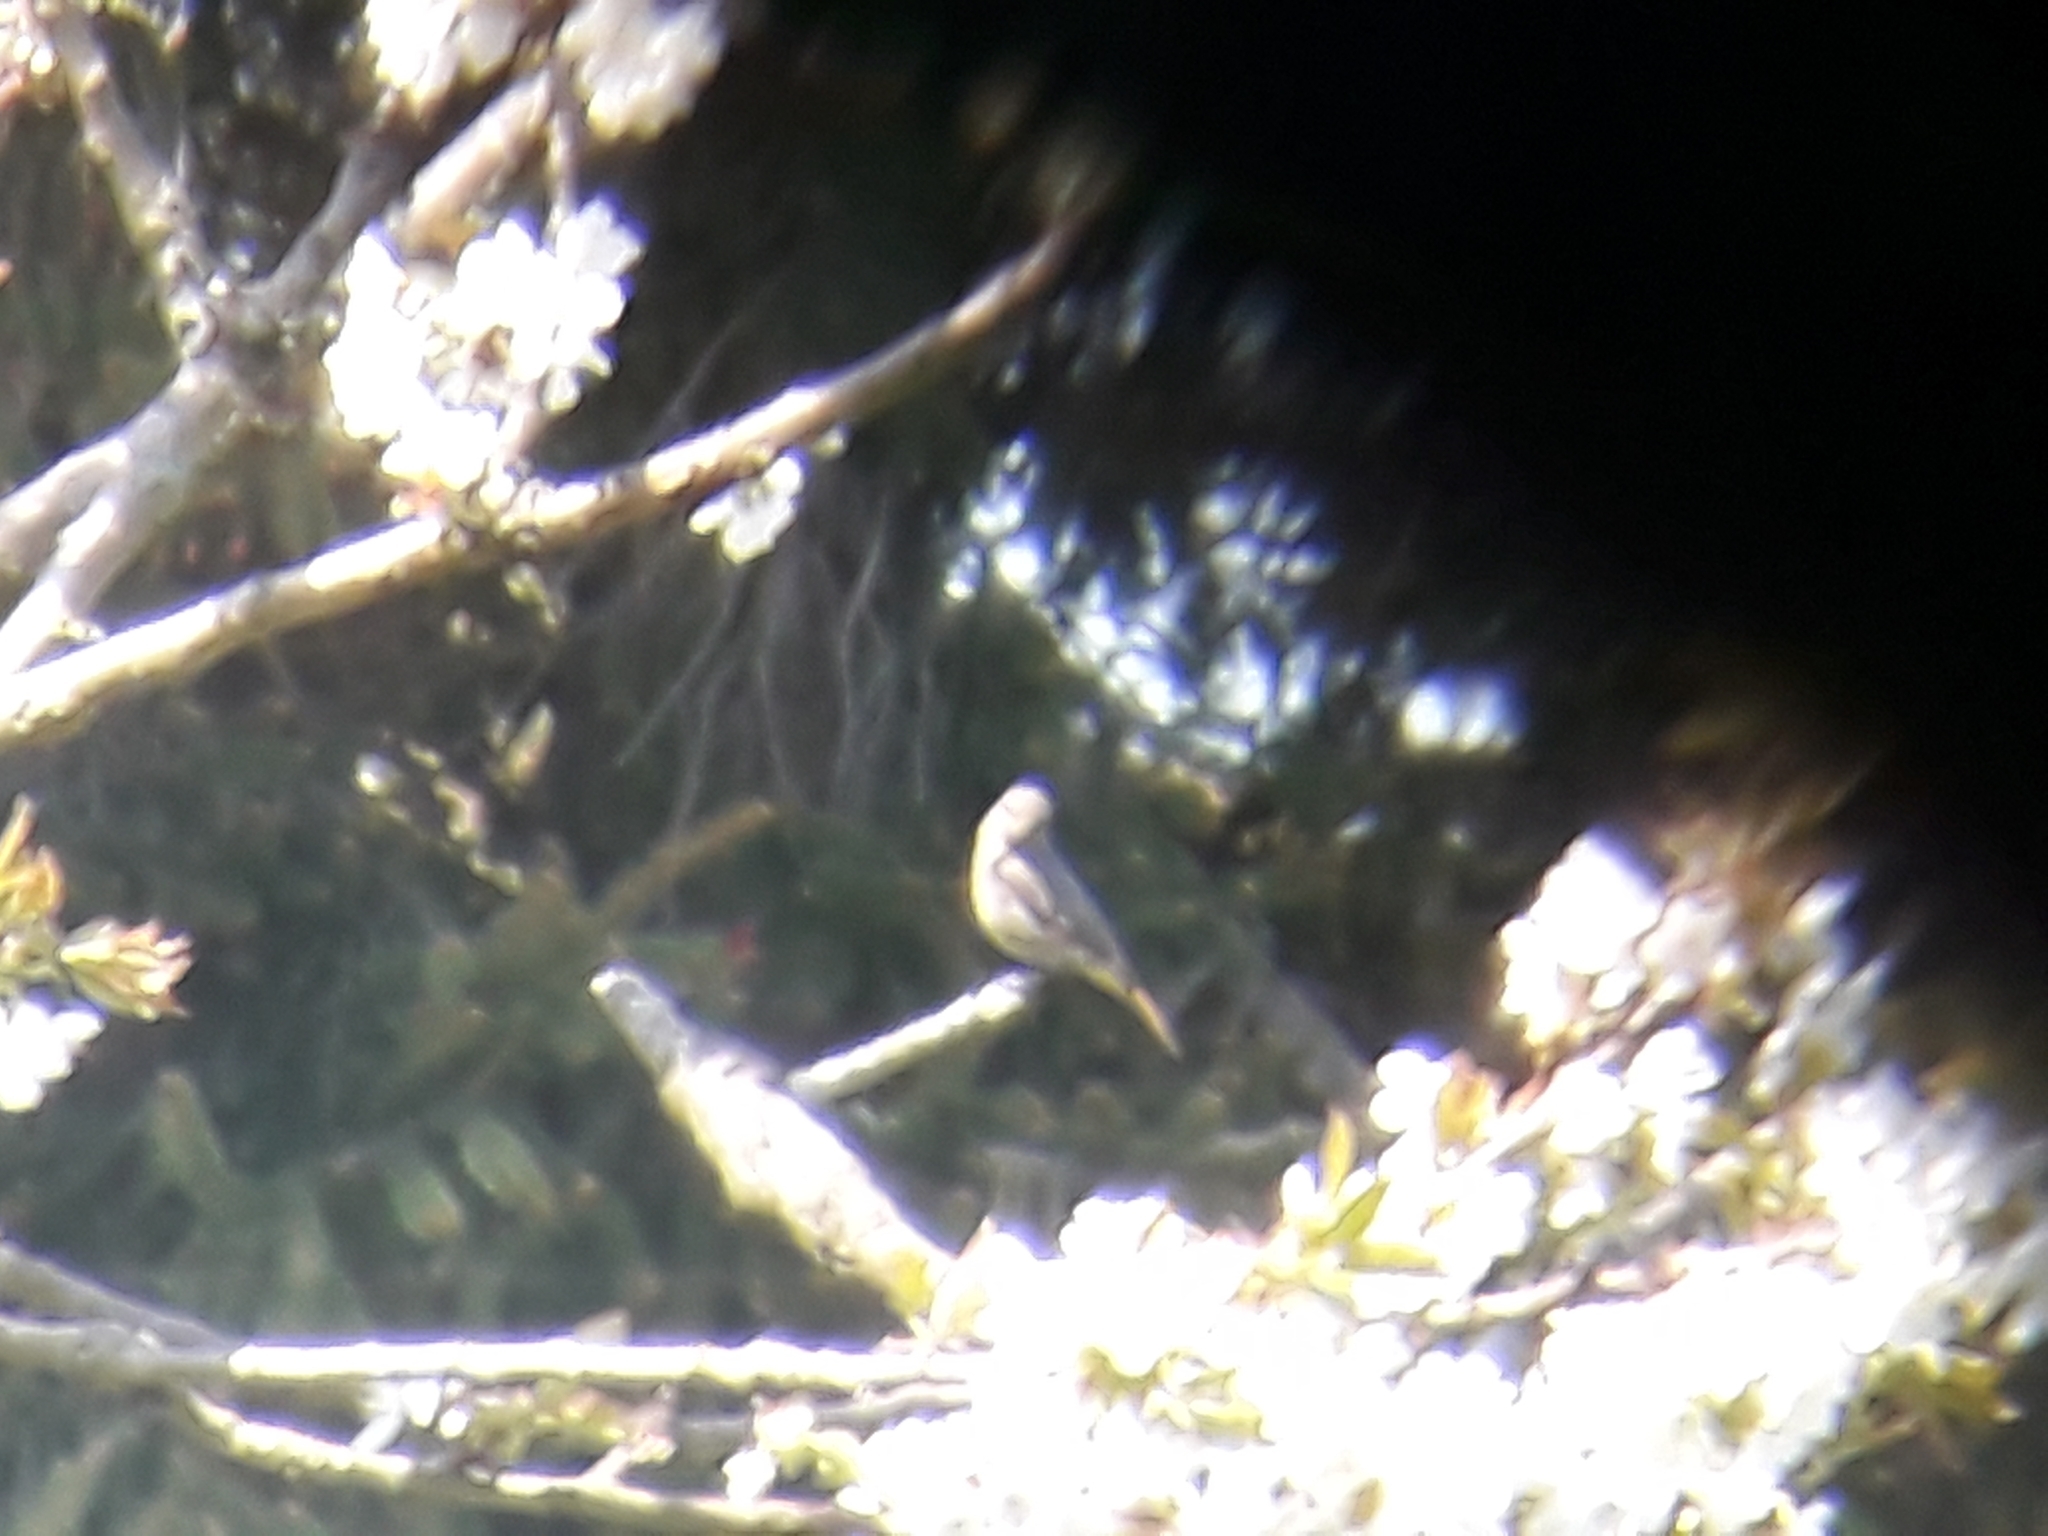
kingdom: Animalia
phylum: Chordata
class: Aves
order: Passeriformes
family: Muscicapidae
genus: Phoenicurus
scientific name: Phoenicurus ochruros
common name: Black redstart
